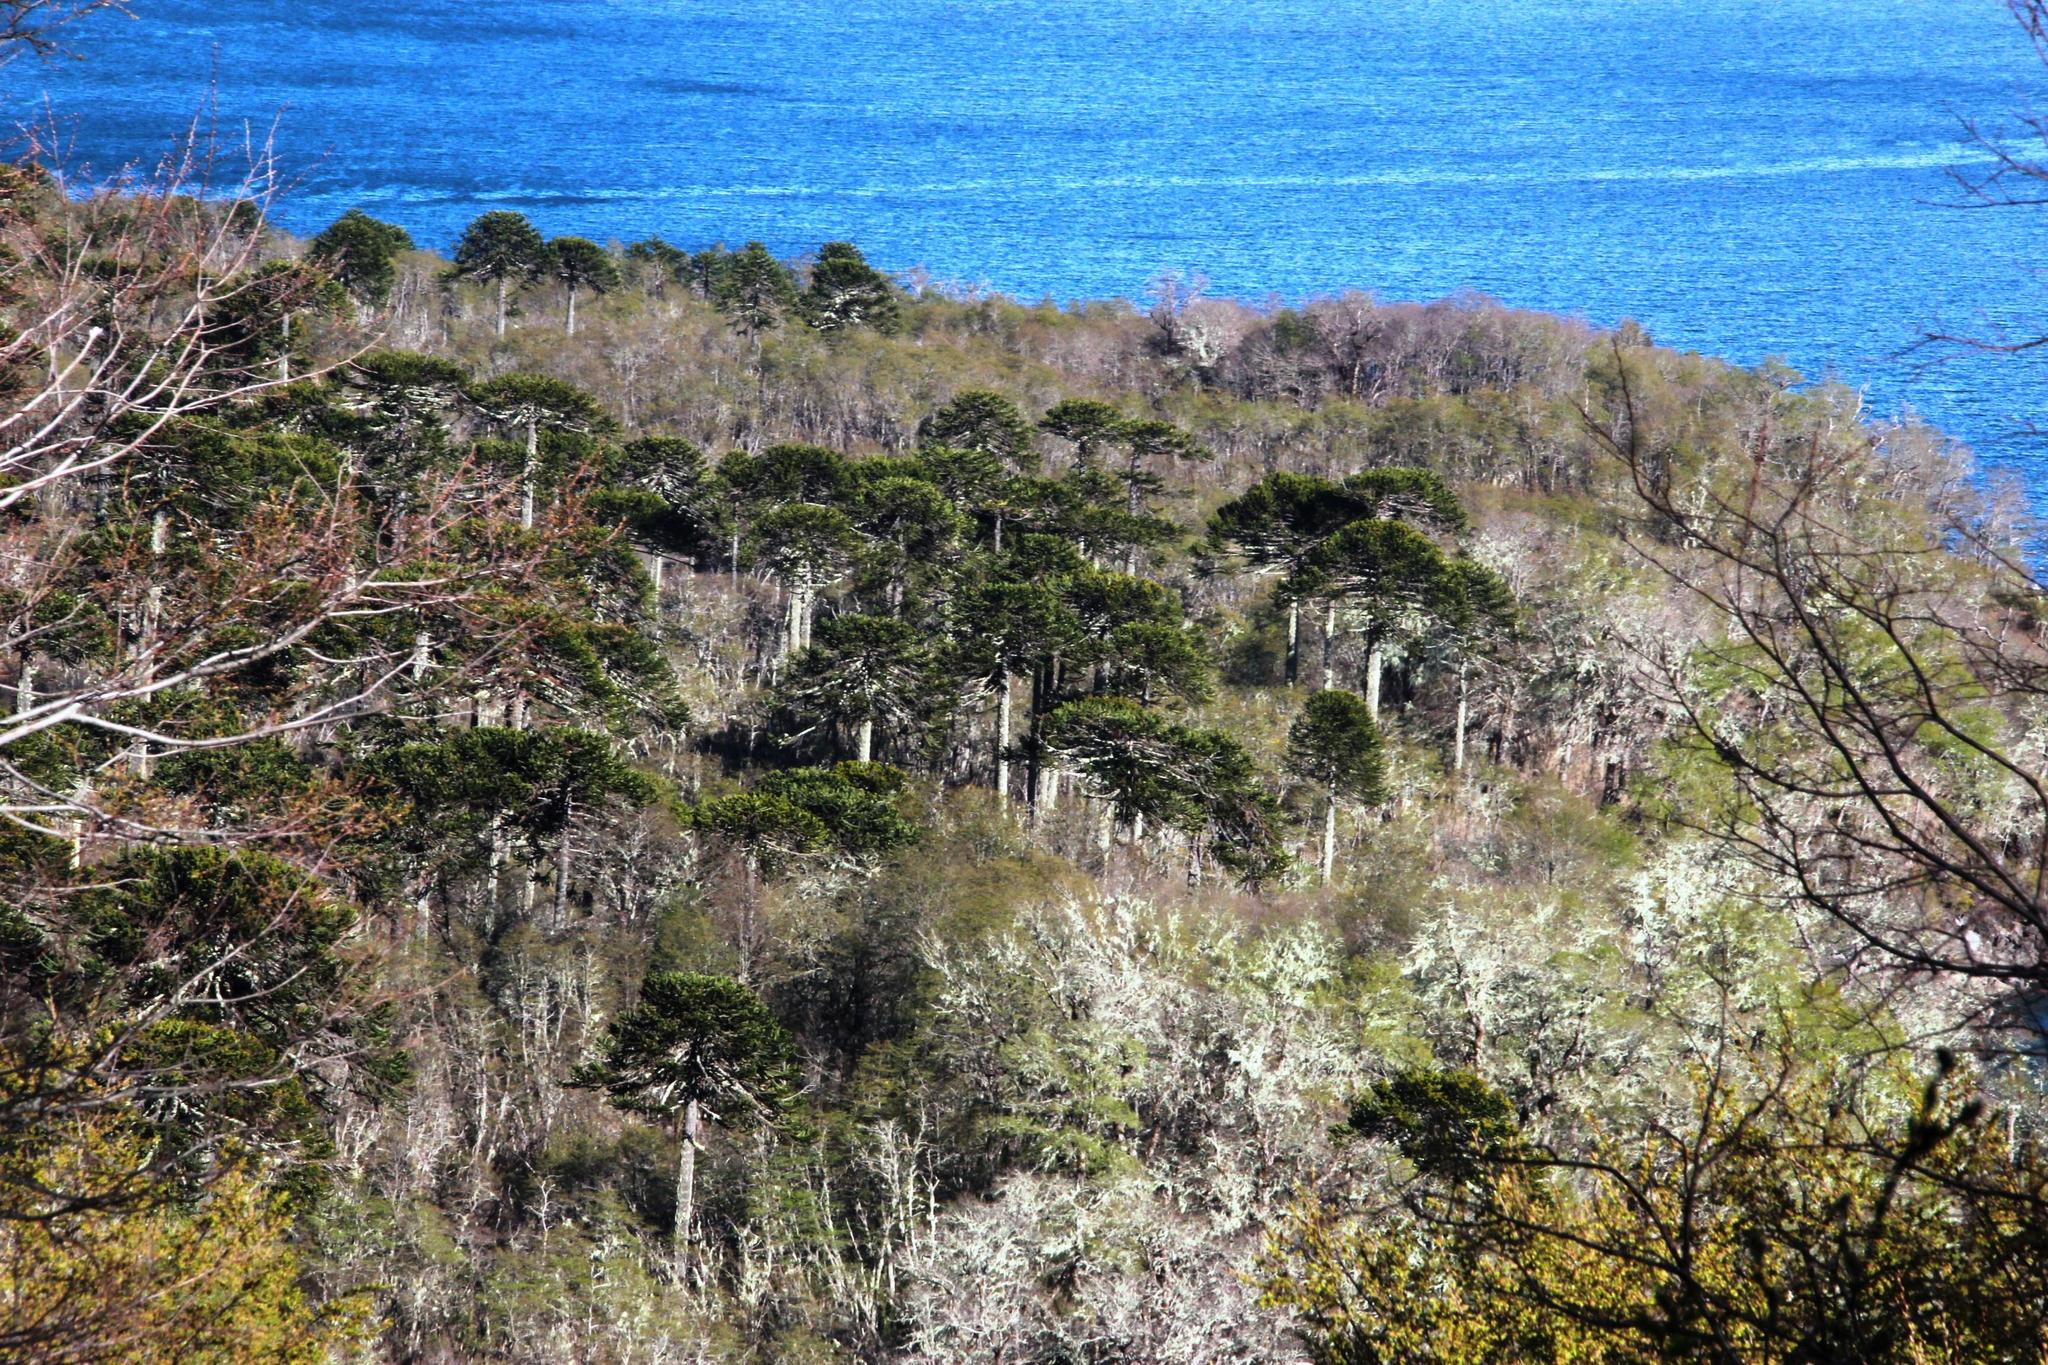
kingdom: Plantae
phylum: Tracheophyta
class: Pinopsida
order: Pinales
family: Araucariaceae
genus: Araucaria
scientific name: Araucaria araucana
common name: Monkey-puzzle
